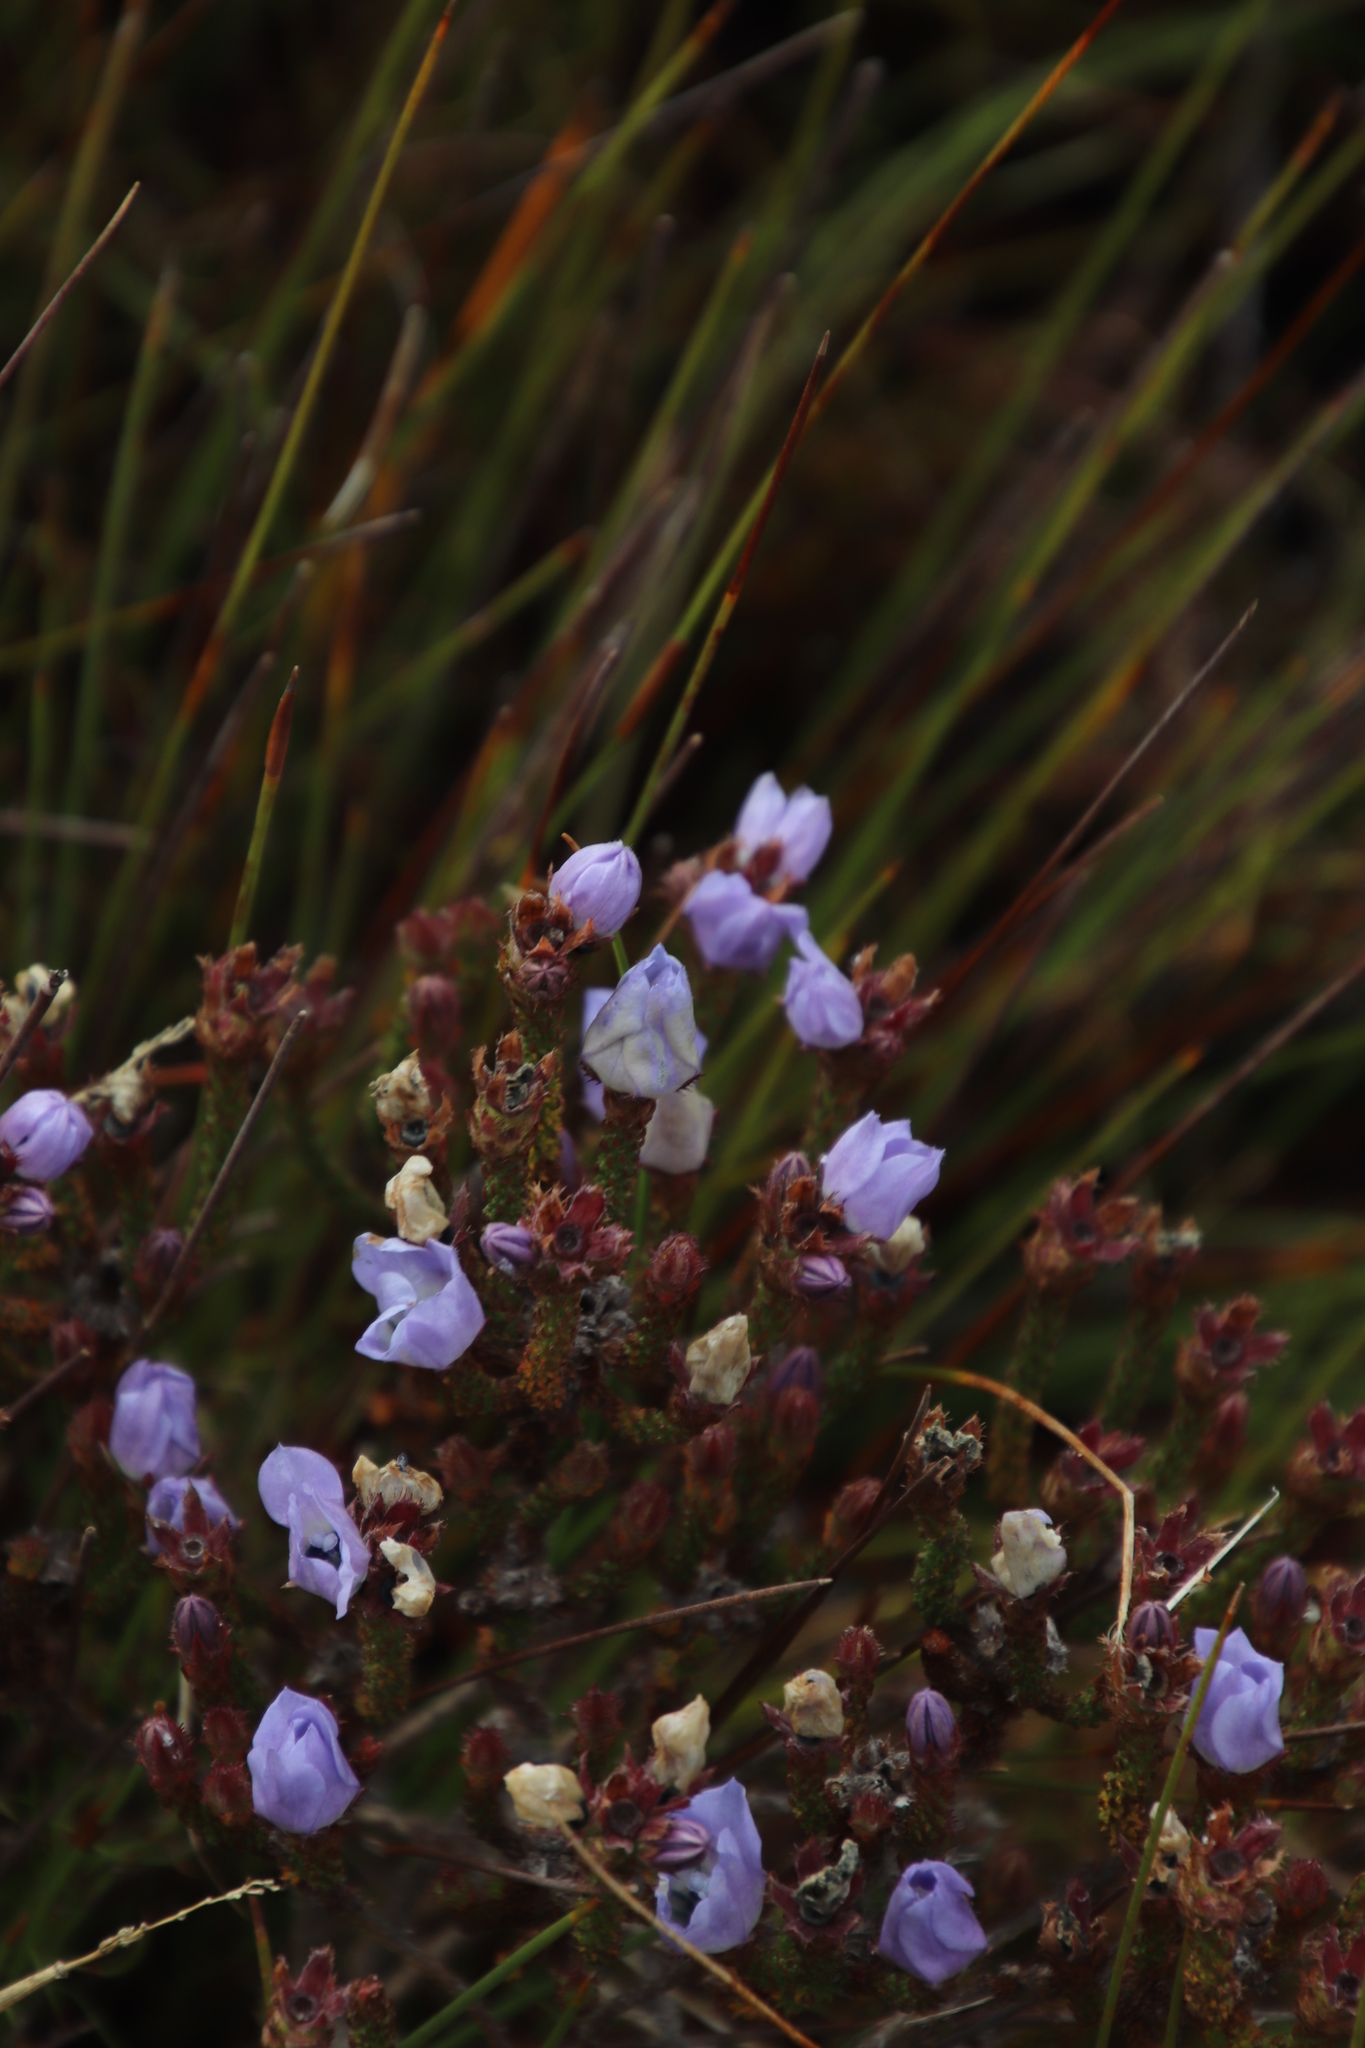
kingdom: Plantae
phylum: Tracheophyta
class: Magnoliopsida
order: Asterales
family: Campanulaceae
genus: Roella
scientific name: Roella triflora
